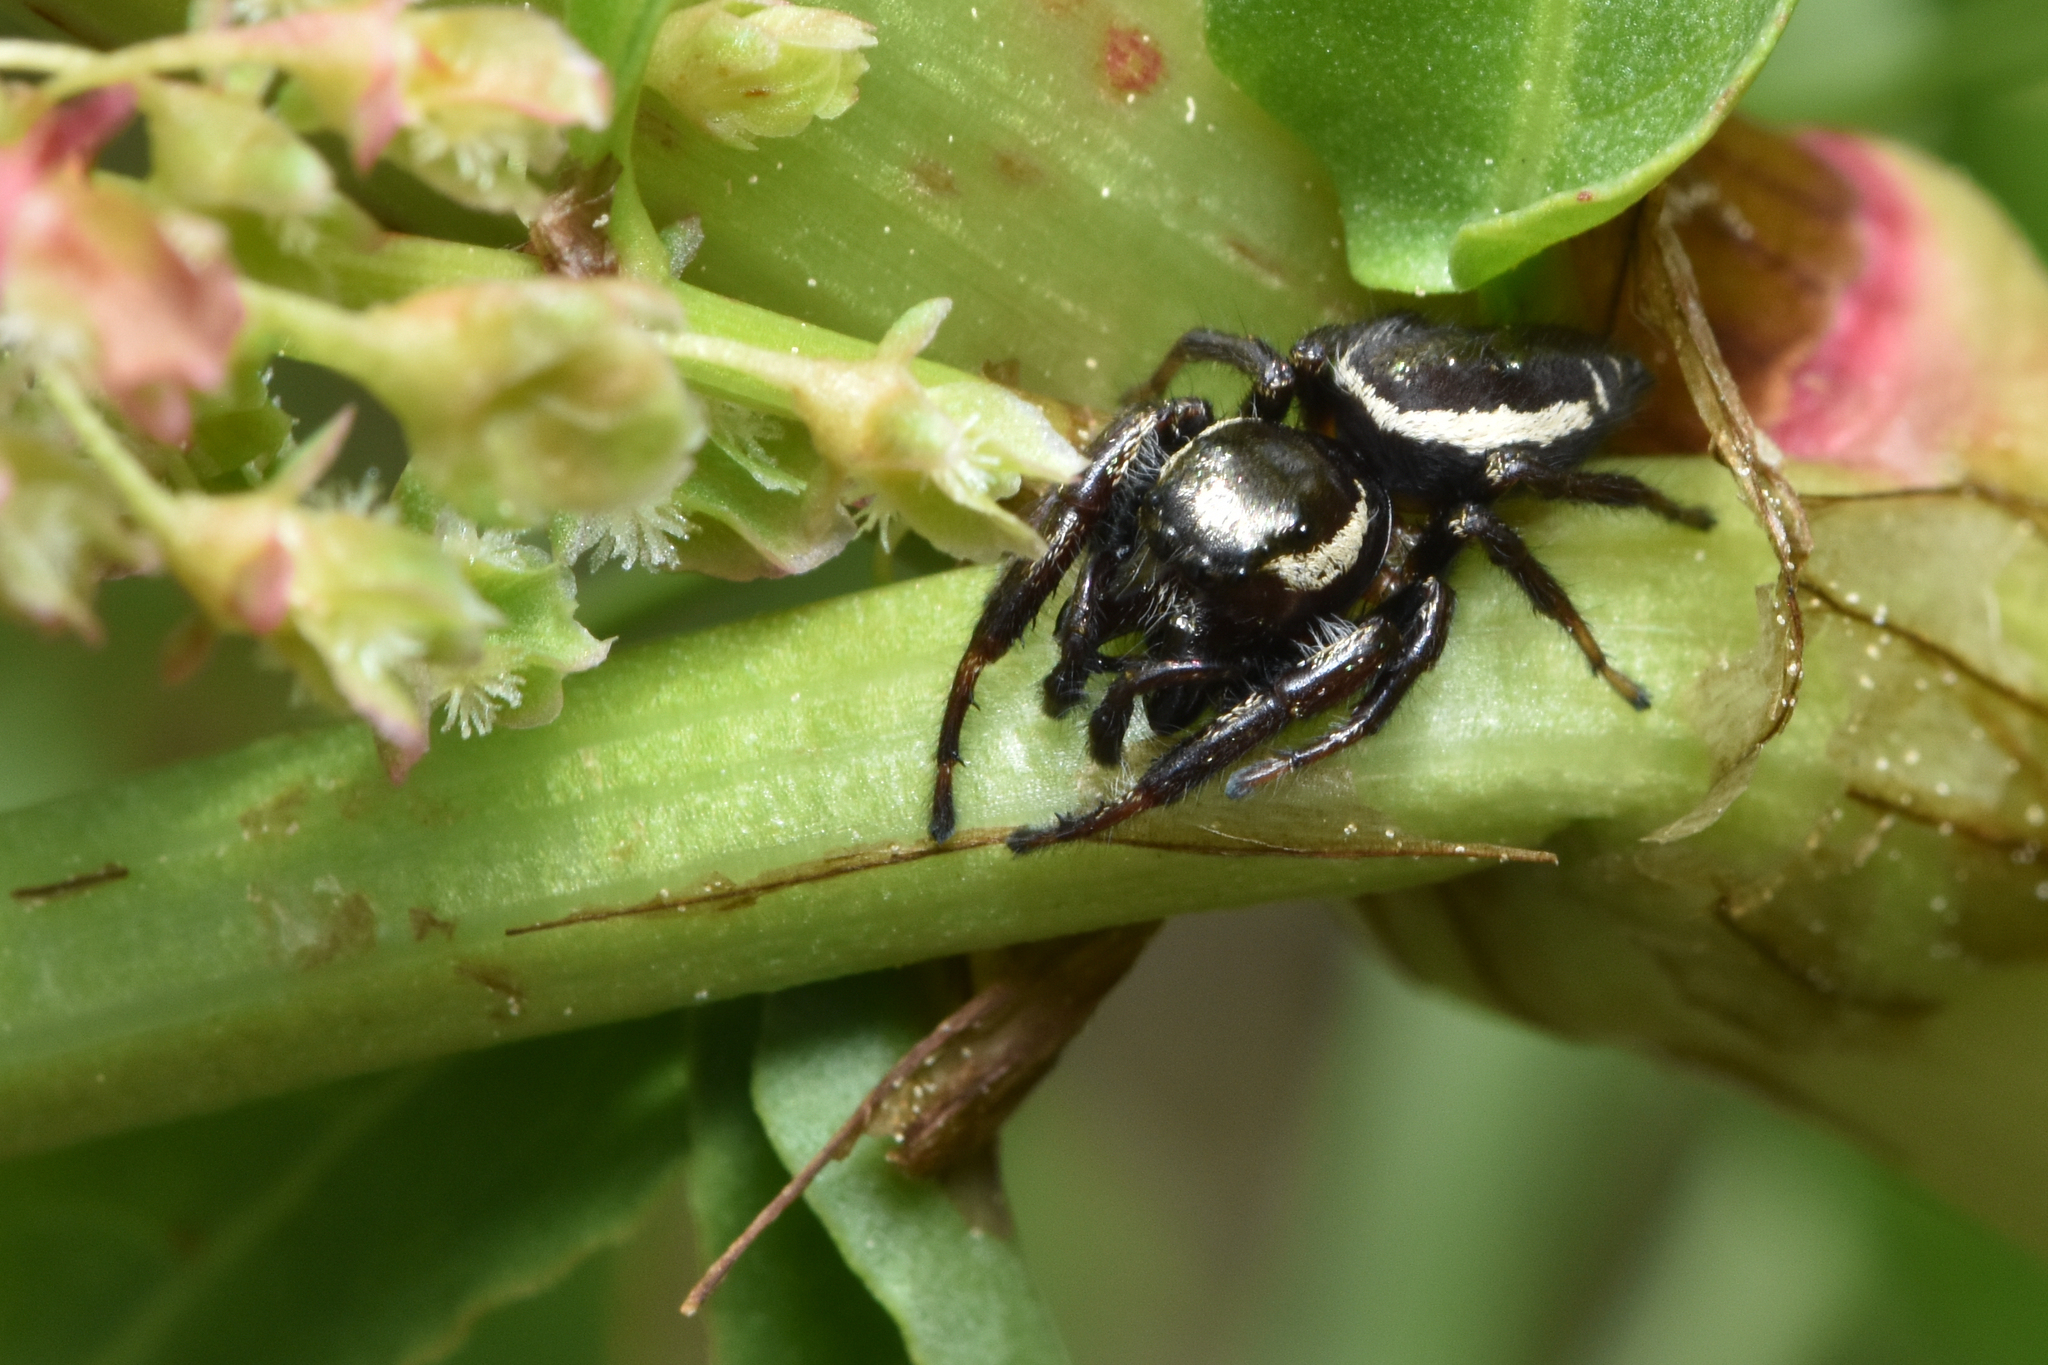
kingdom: Animalia
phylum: Arthropoda
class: Arachnida
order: Araneae
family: Salticidae
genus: Eris
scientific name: Eris militaris
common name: Bronze jumper
